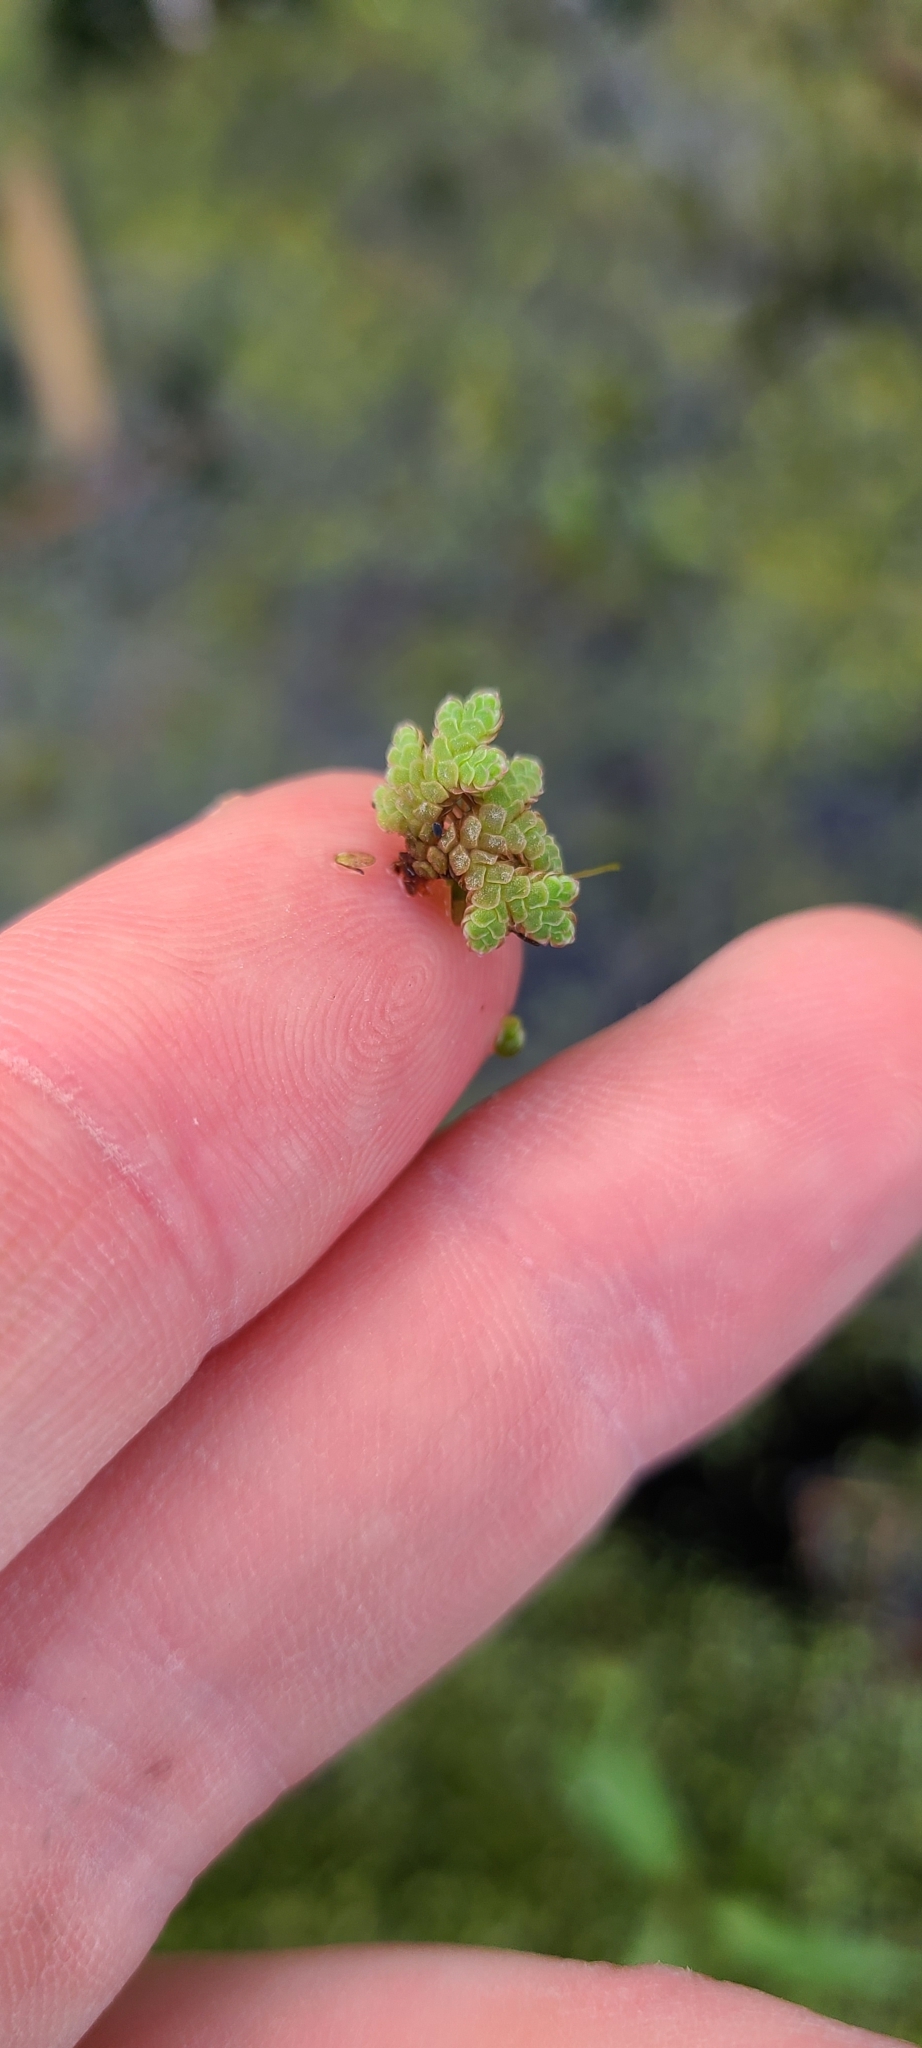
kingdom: Plantae
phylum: Tracheophyta
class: Polypodiopsida
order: Salviniales
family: Salviniaceae
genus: Azolla
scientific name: Azolla rubra
